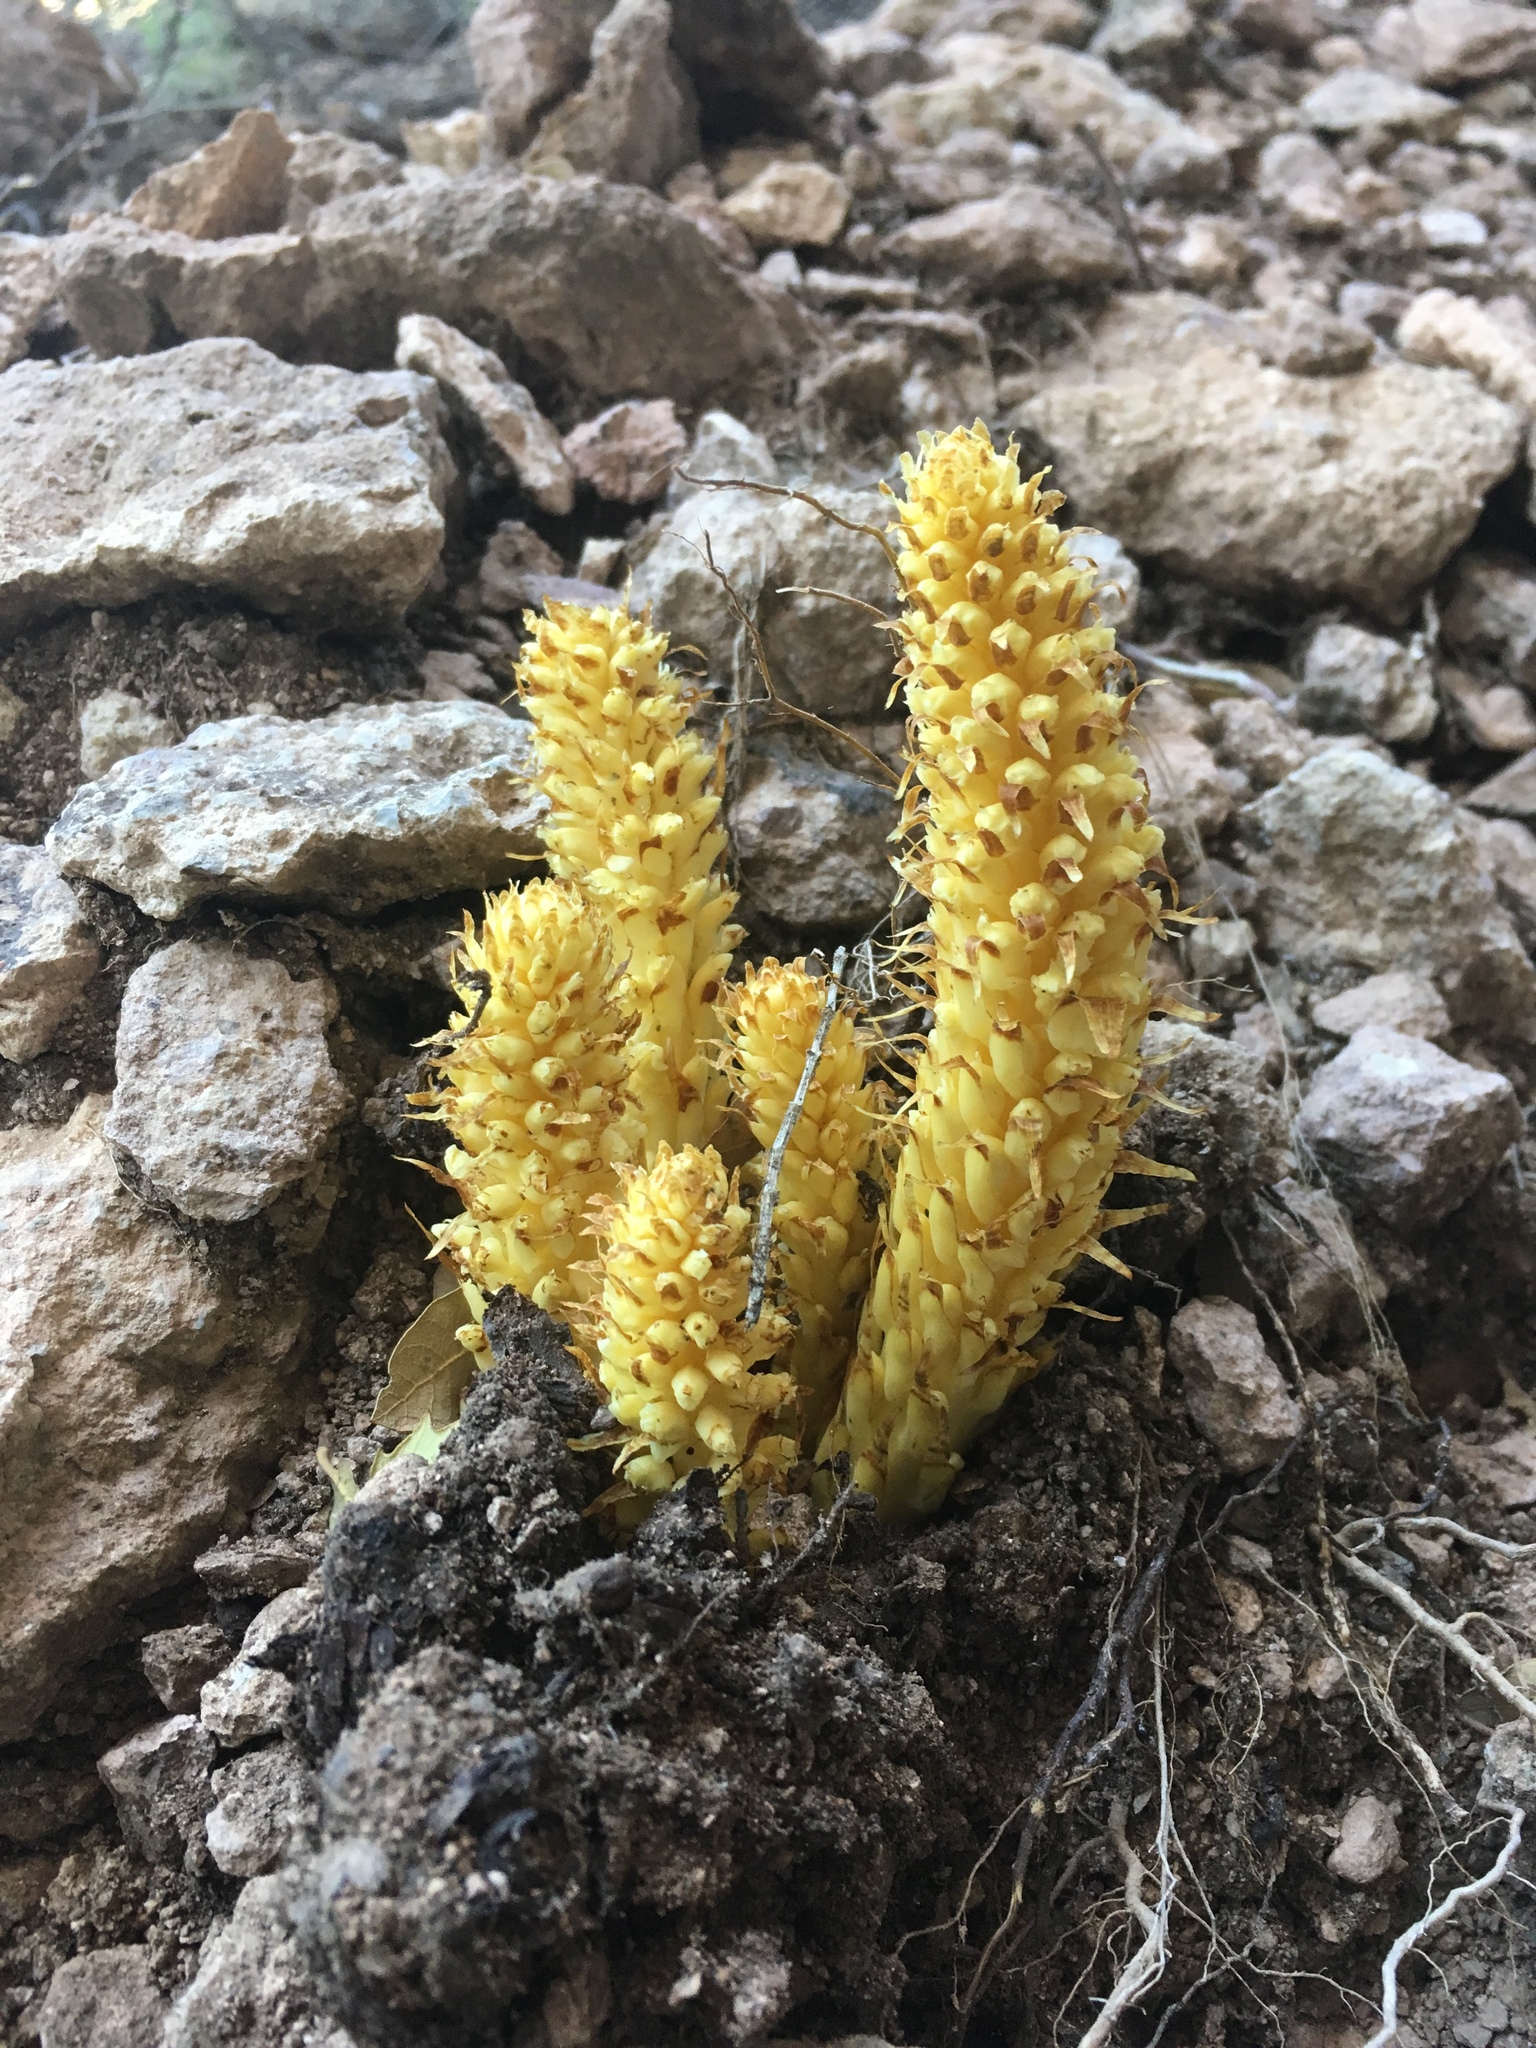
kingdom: Plantae
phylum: Tracheophyta
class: Magnoliopsida
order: Lamiales
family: Orobanchaceae
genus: Conopholis
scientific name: Conopholis alpina
